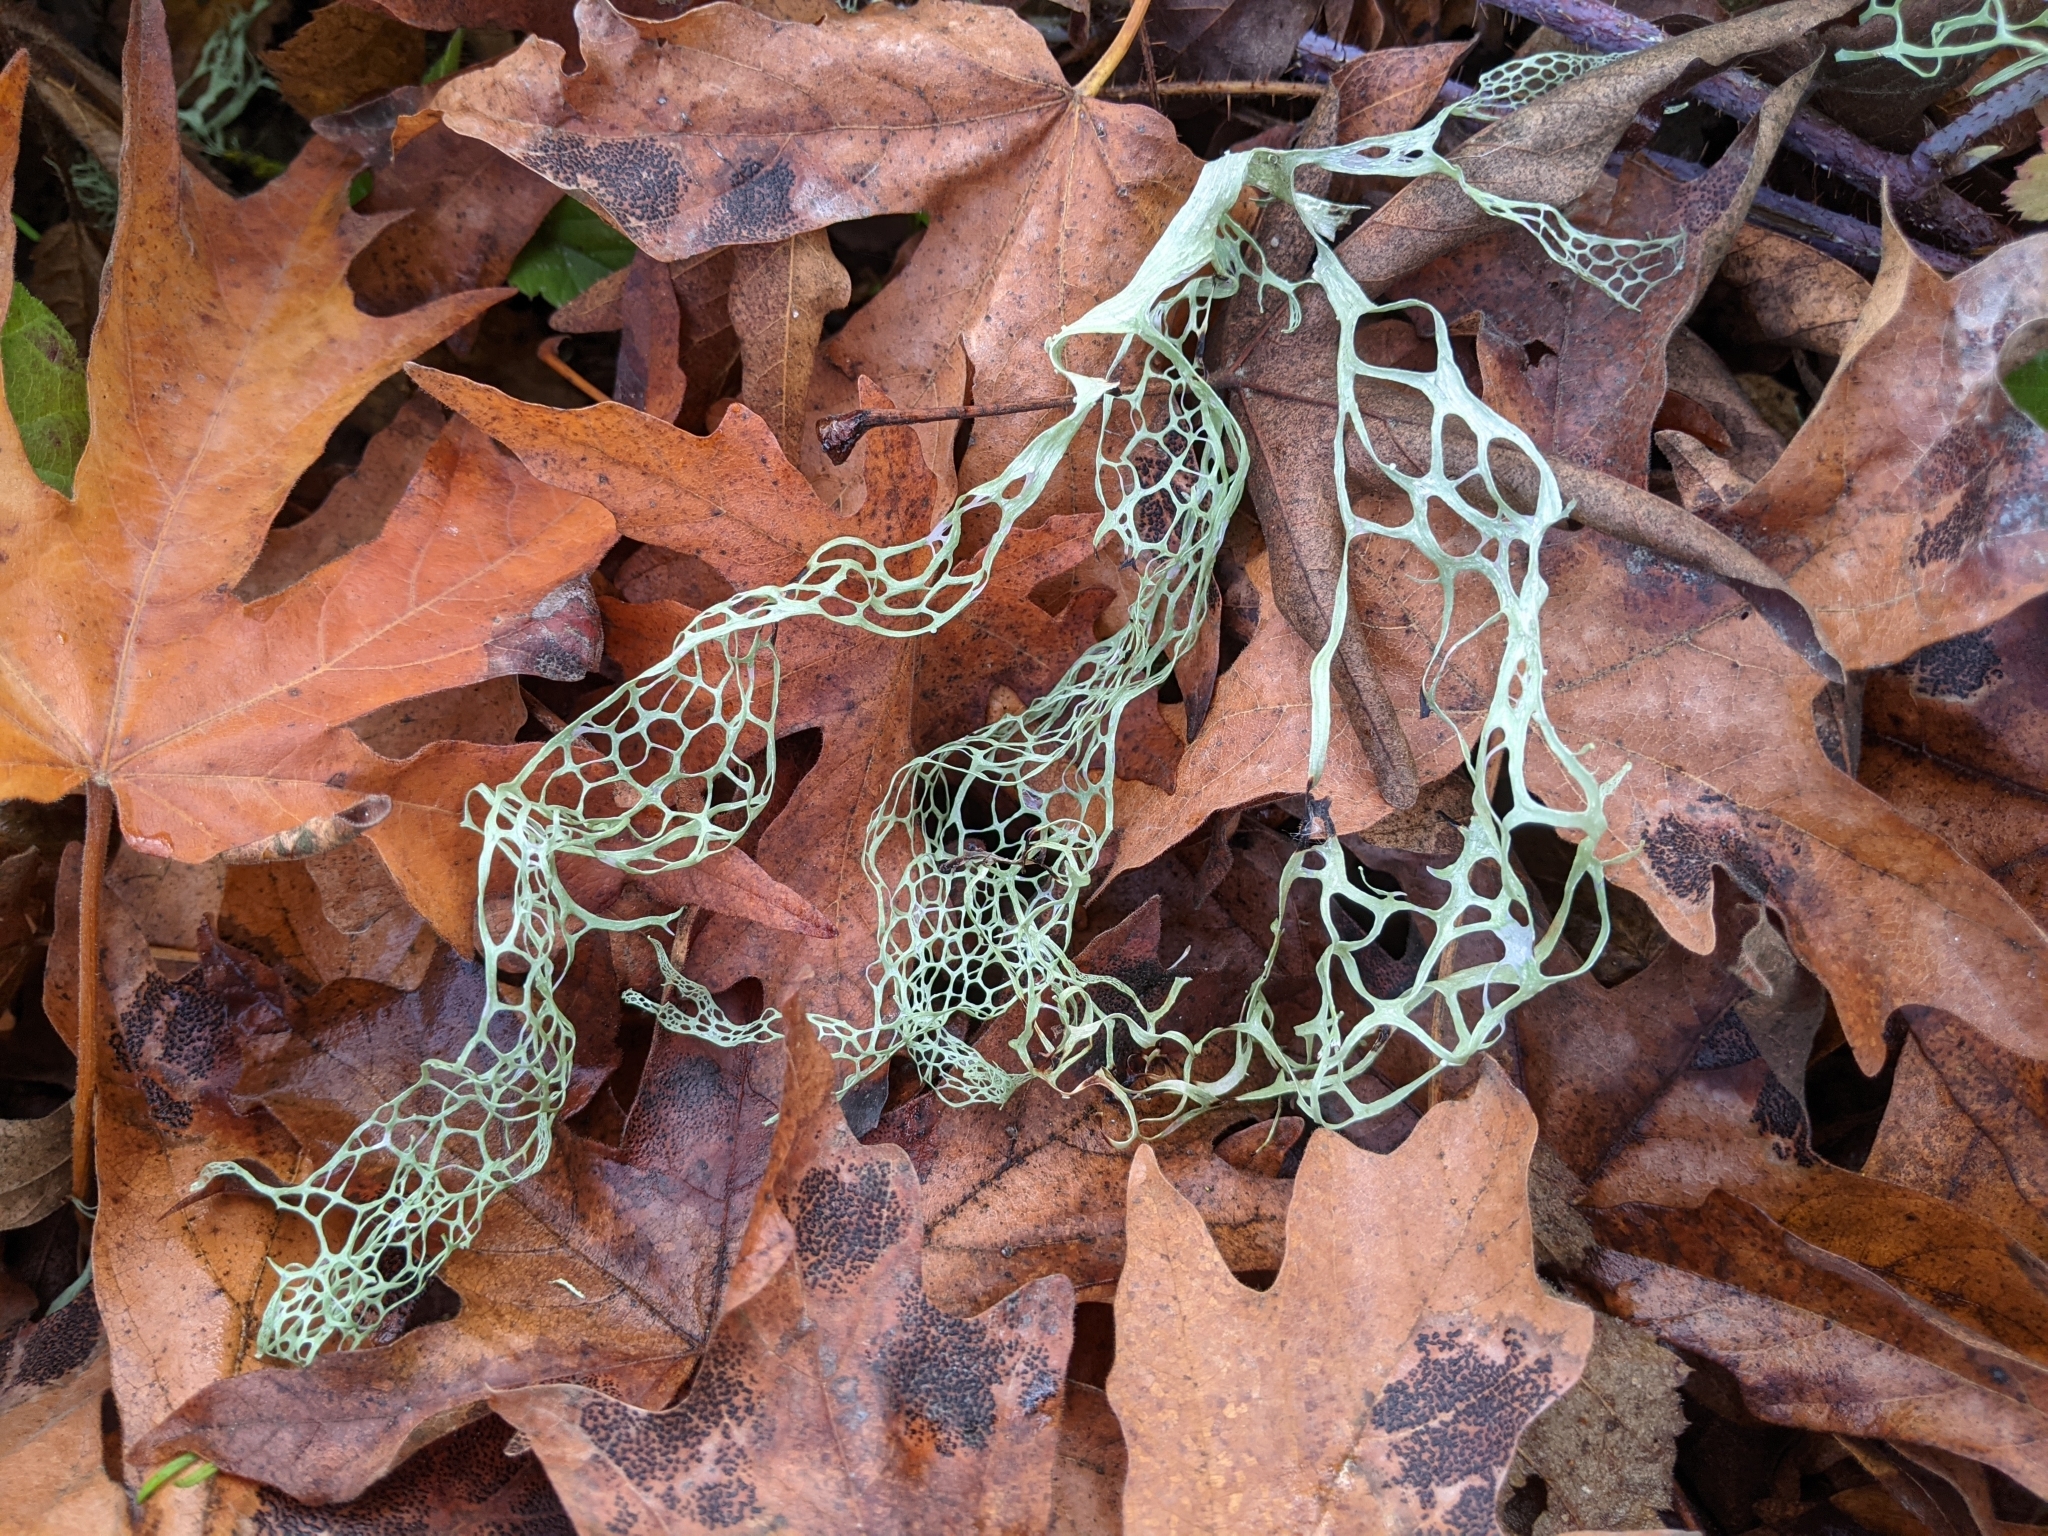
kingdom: Fungi
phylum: Ascomycota
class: Lecanoromycetes
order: Lecanorales
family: Ramalinaceae
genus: Ramalina
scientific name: Ramalina menziesii
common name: Lace lichen
